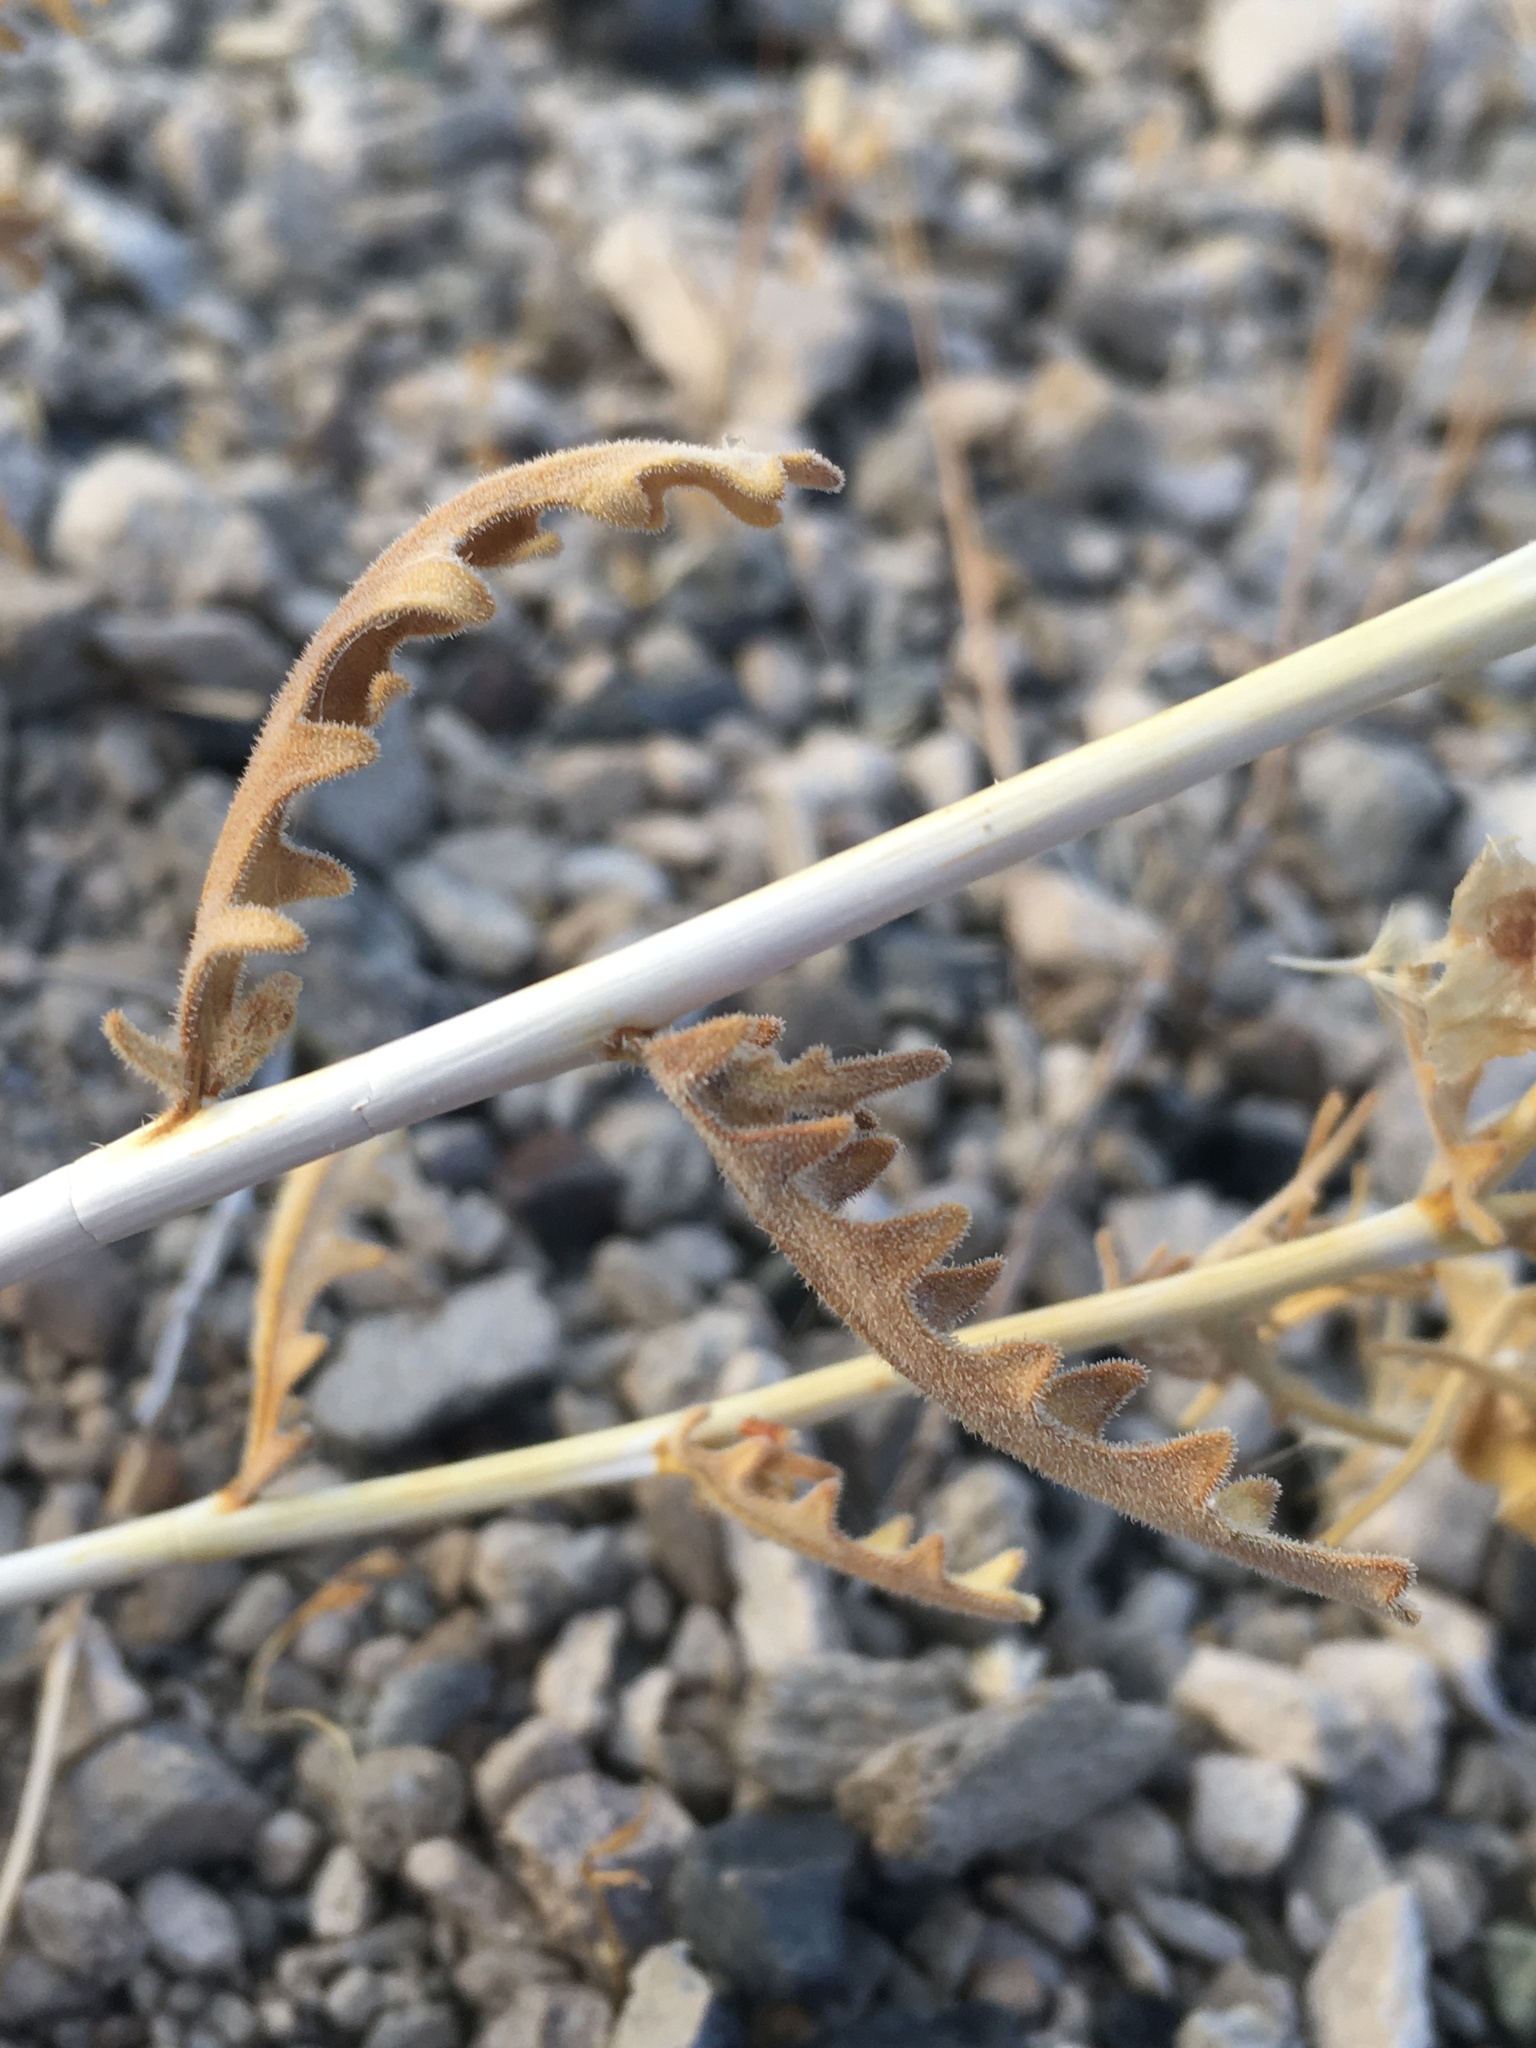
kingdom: Plantae
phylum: Tracheophyta
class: Magnoliopsida
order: Cornales
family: Loasaceae
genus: Mentzelia
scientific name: Mentzelia laevicaulis
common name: Smooth-stem blazingstar
